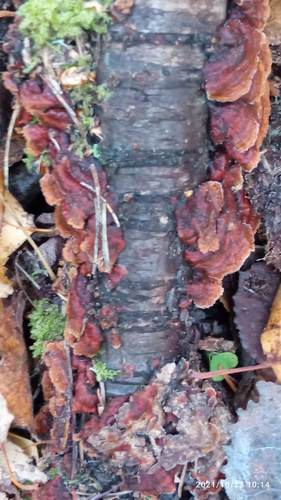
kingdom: Fungi
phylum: Basidiomycota
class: Agaricomycetes
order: Hymenochaetales
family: Hymenochaetaceae
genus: Hydnoporia
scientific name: Hydnoporia tabacina
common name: Willow glue
